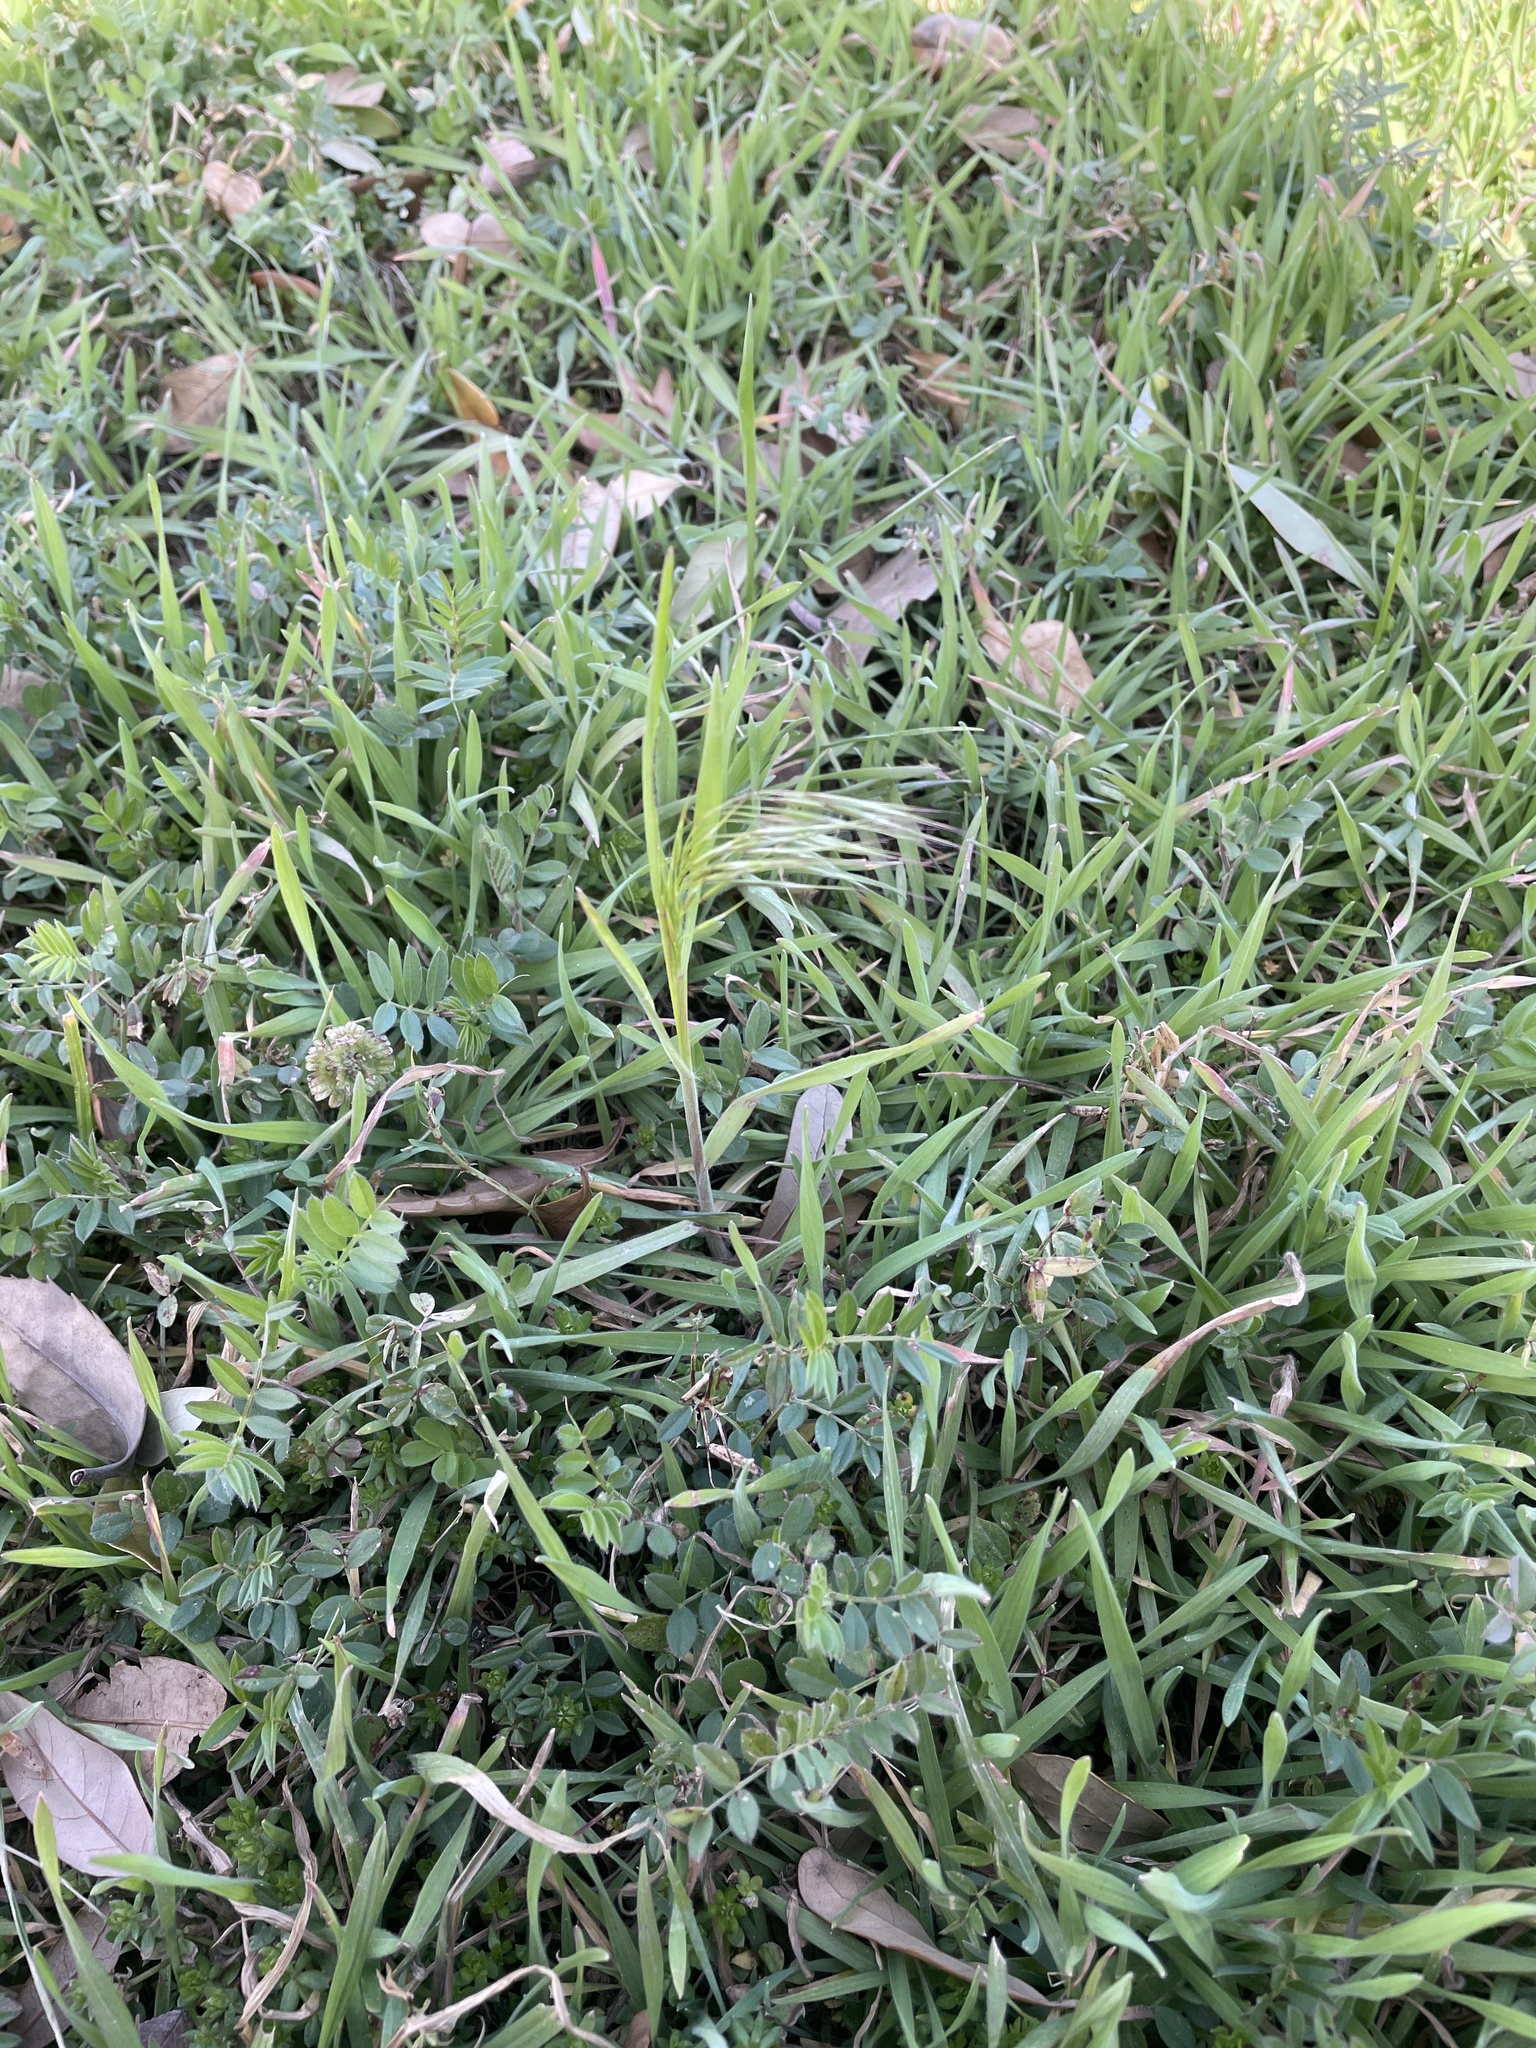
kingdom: Plantae
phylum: Tracheophyta
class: Liliopsida
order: Poales
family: Poaceae
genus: Bromus
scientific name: Bromus tectorum
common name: Cheatgrass
